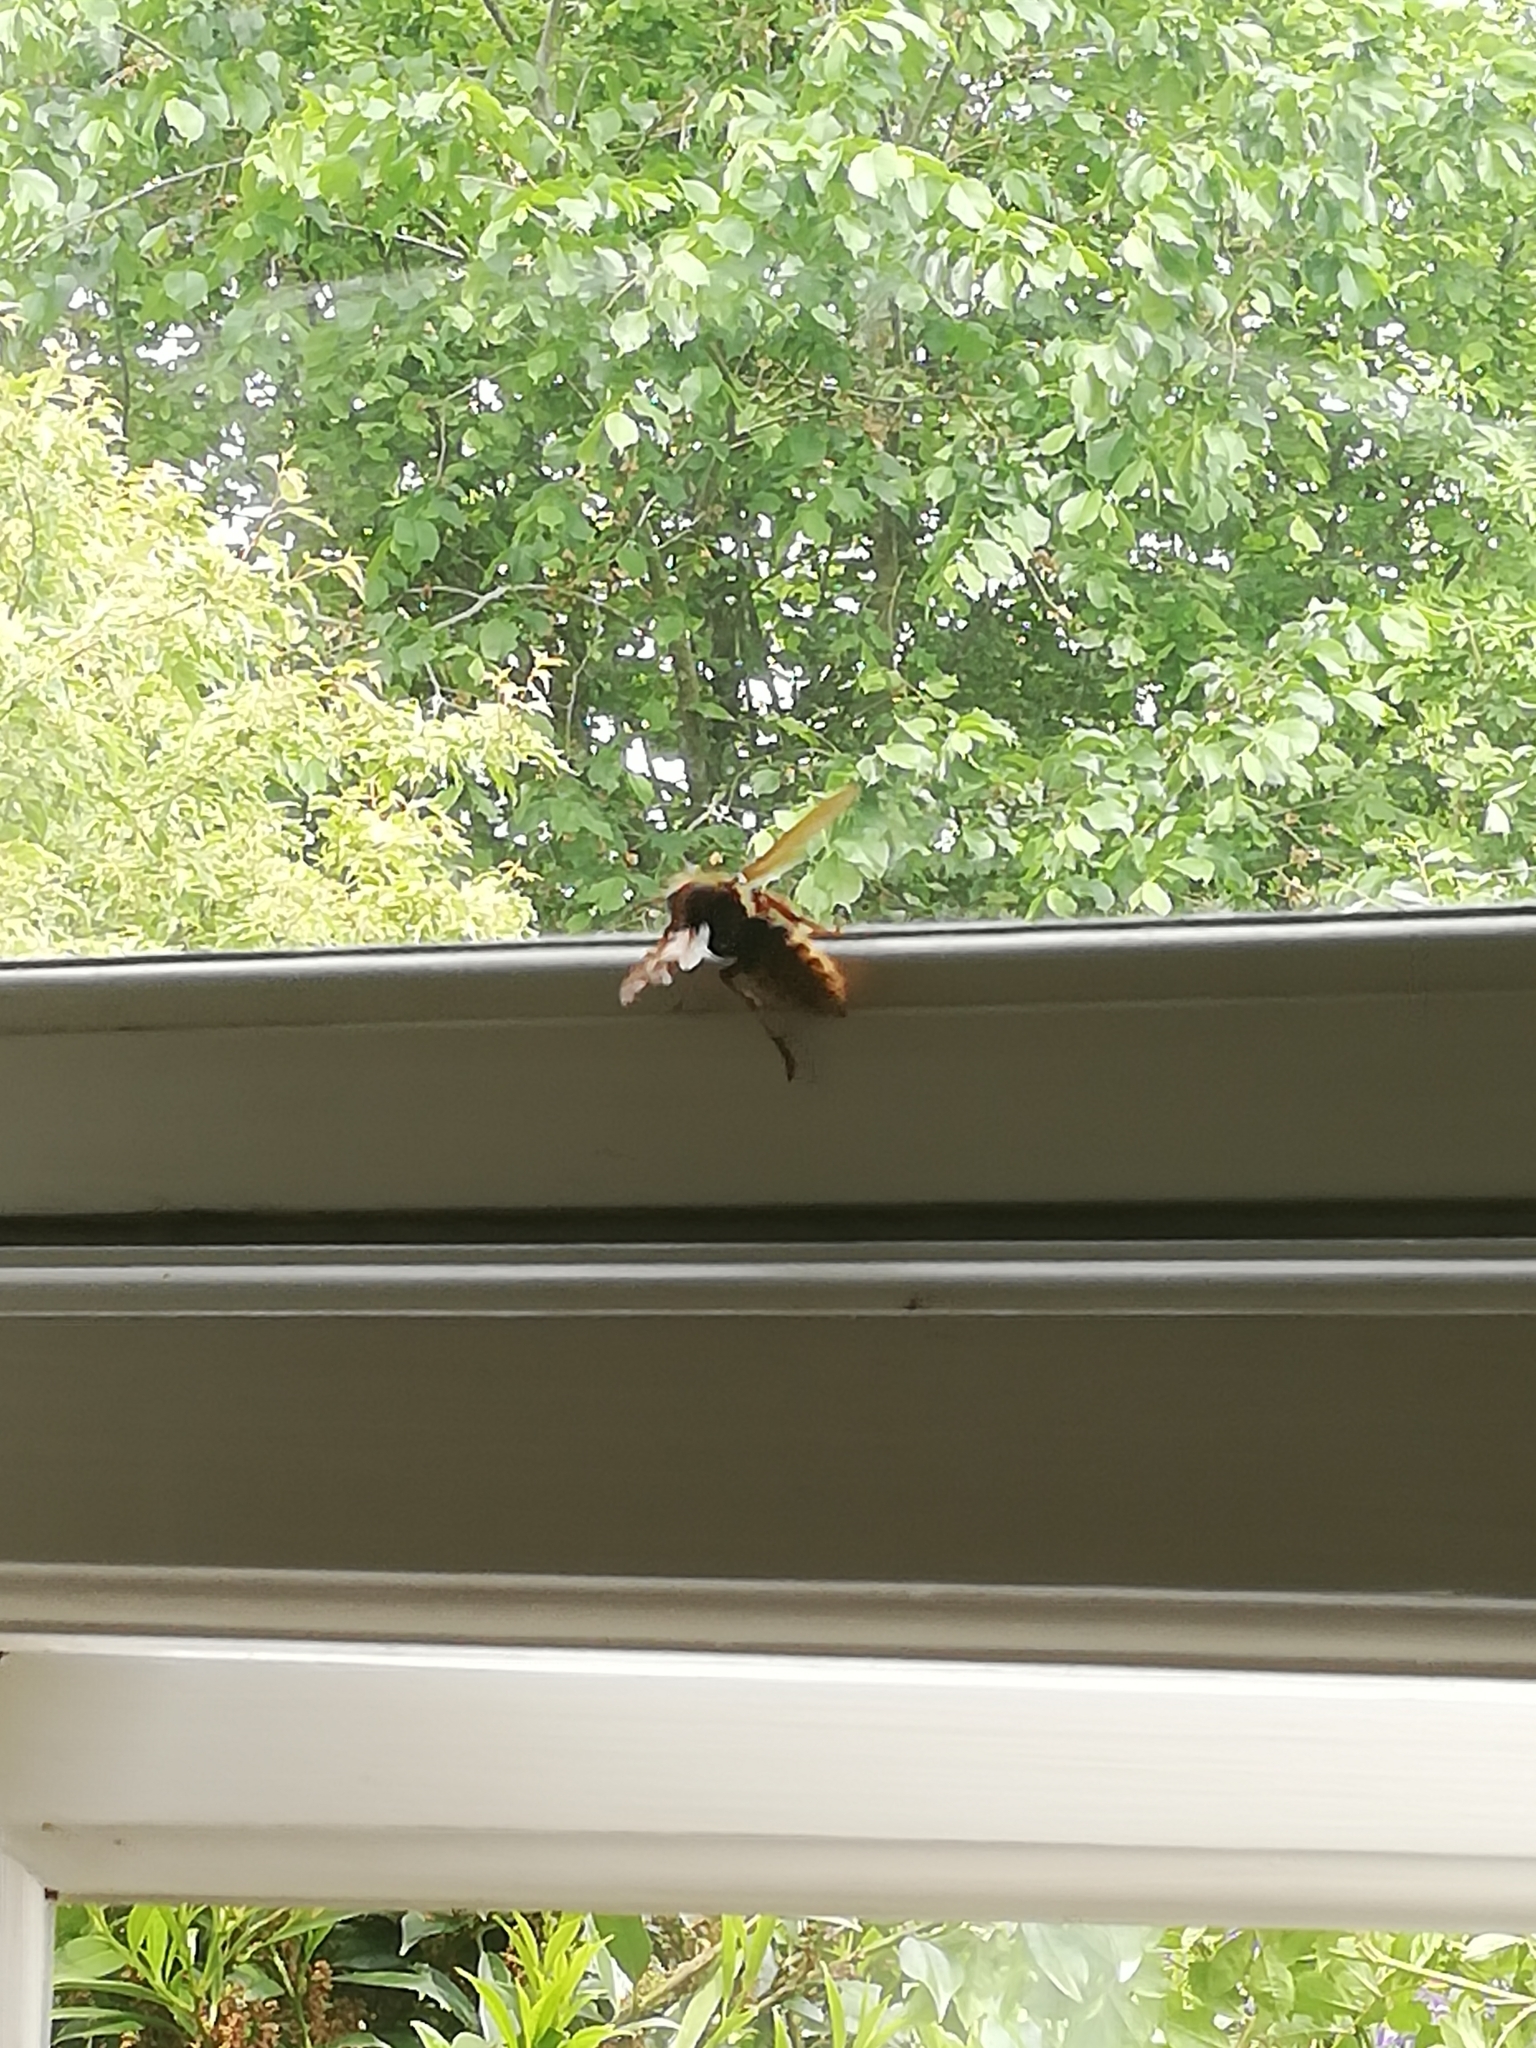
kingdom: Animalia
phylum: Arthropoda
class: Insecta
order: Hymenoptera
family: Vespidae
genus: Vespa
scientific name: Vespa crabro
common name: Hornet
